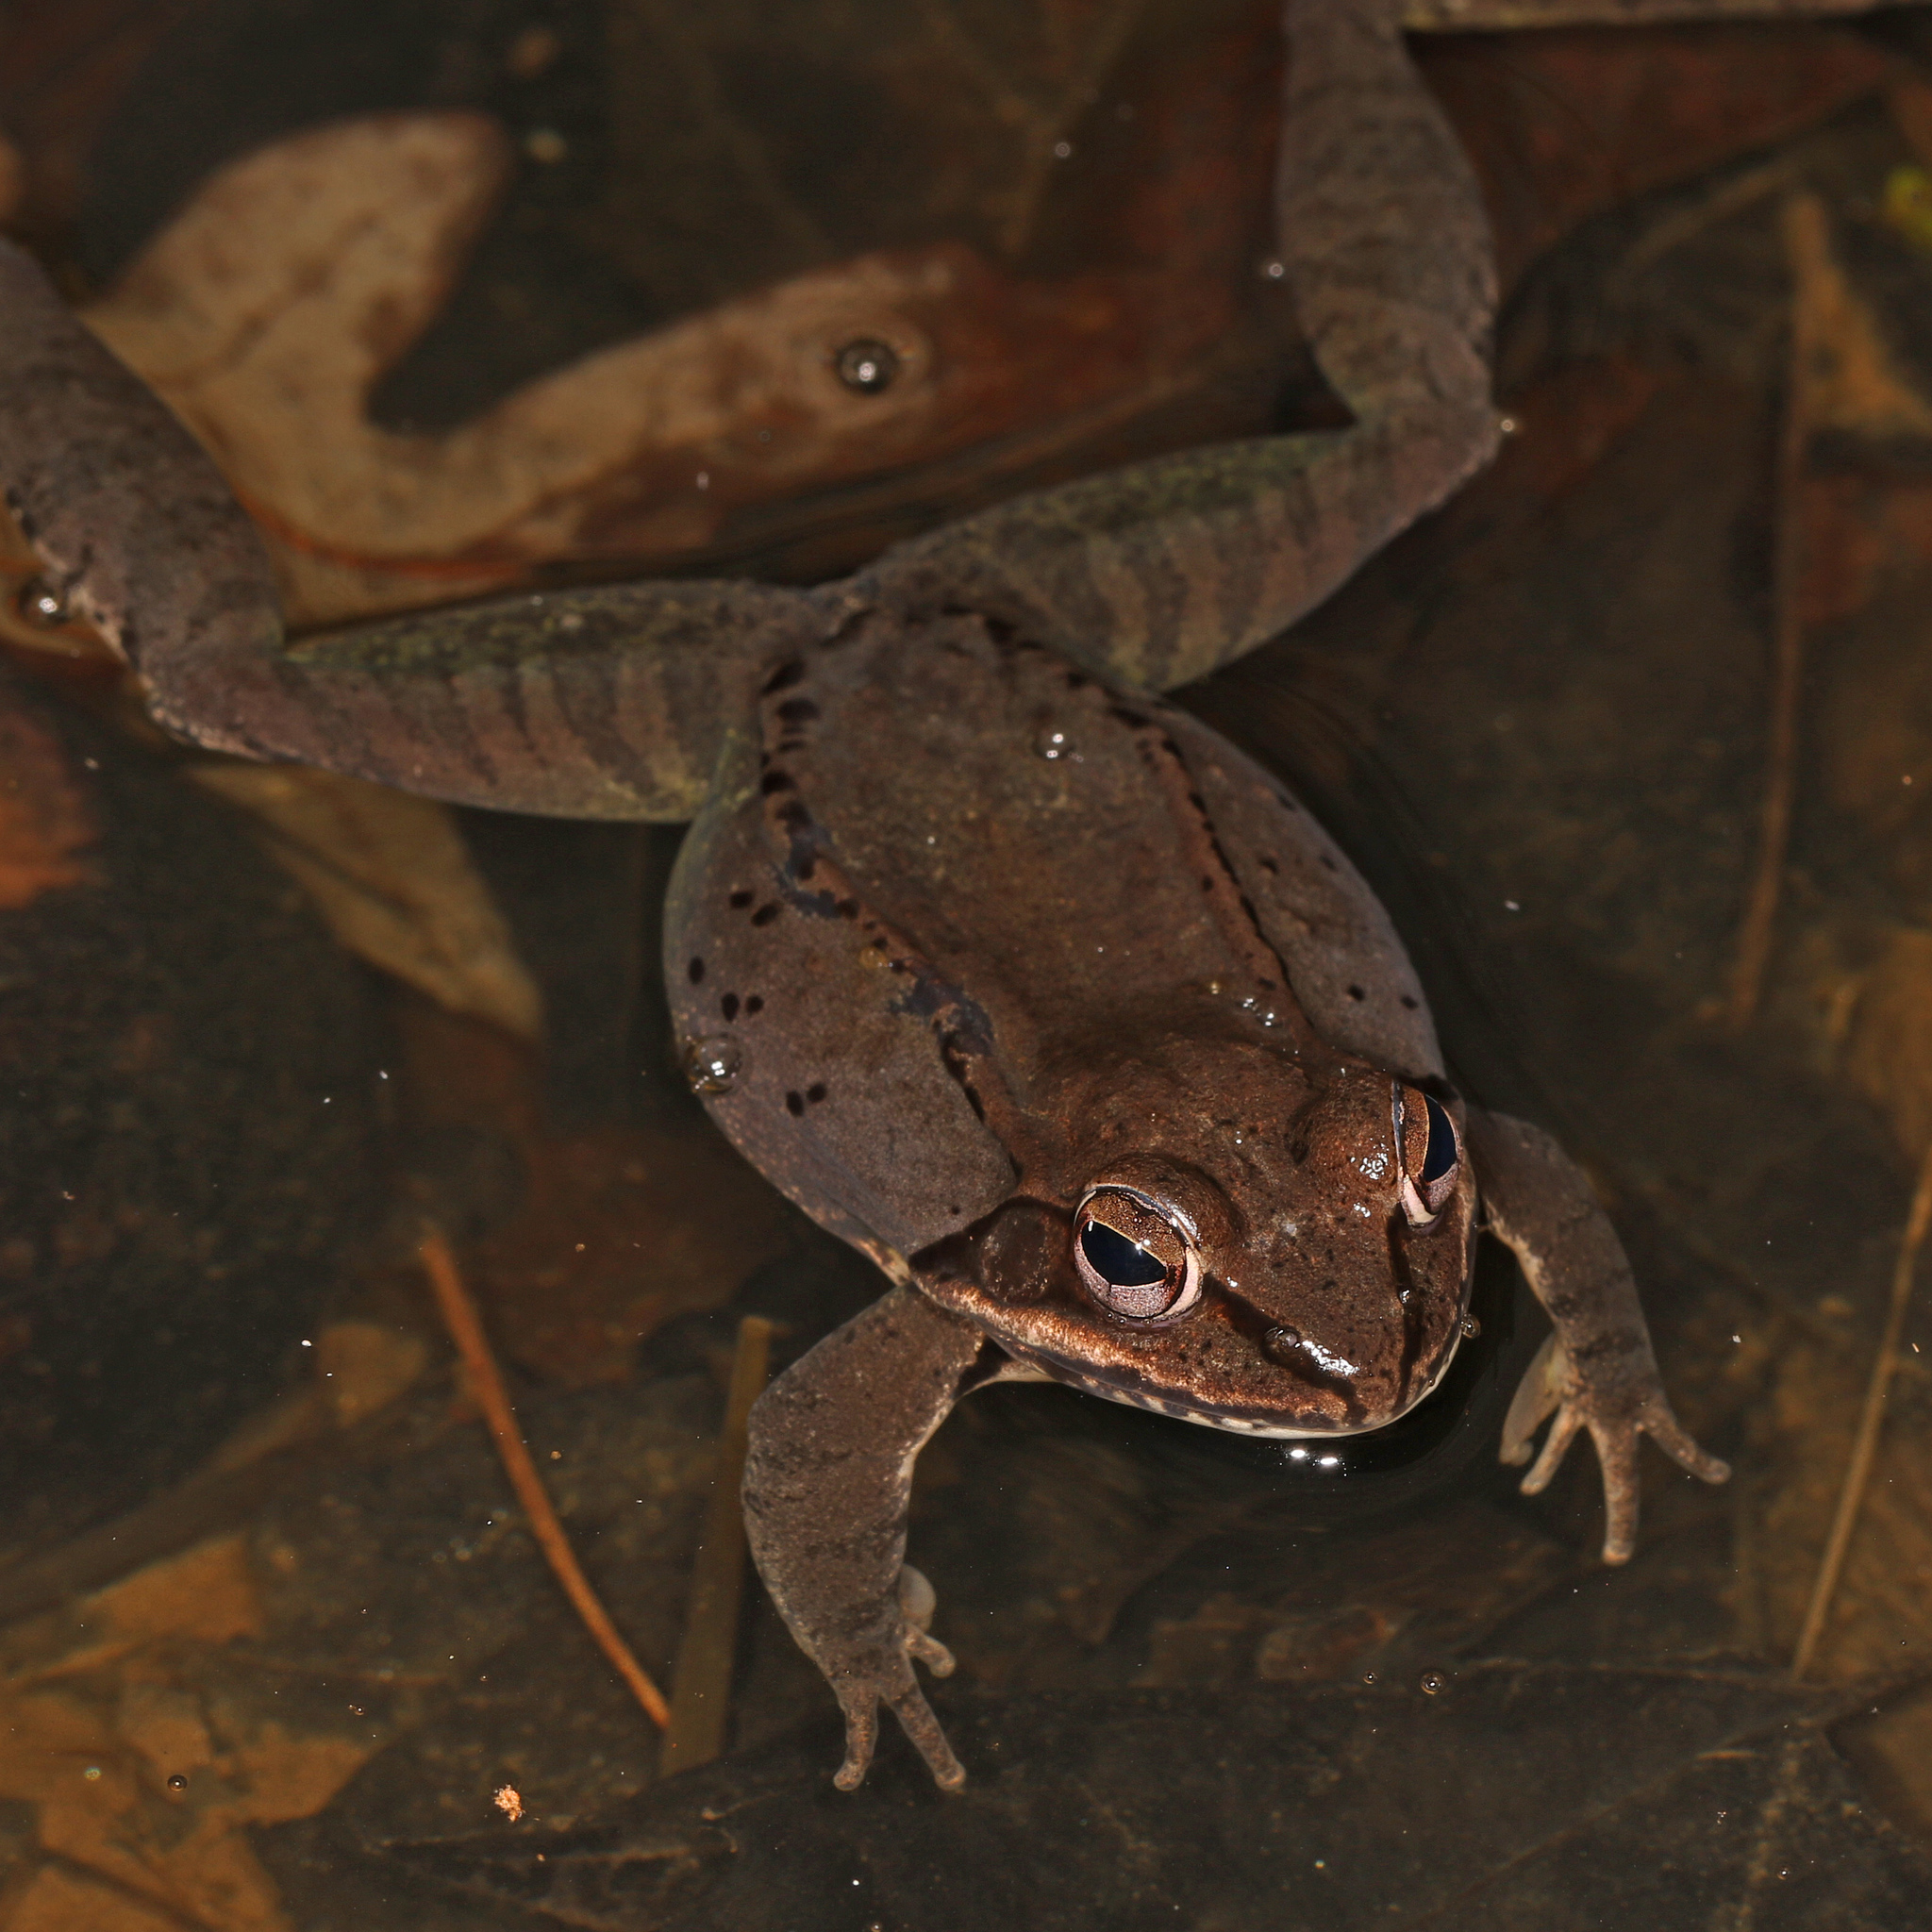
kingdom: Animalia
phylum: Chordata
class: Amphibia
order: Anura
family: Ranidae
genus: Lithobates
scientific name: Lithobates sylvaticus
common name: Wood frog
